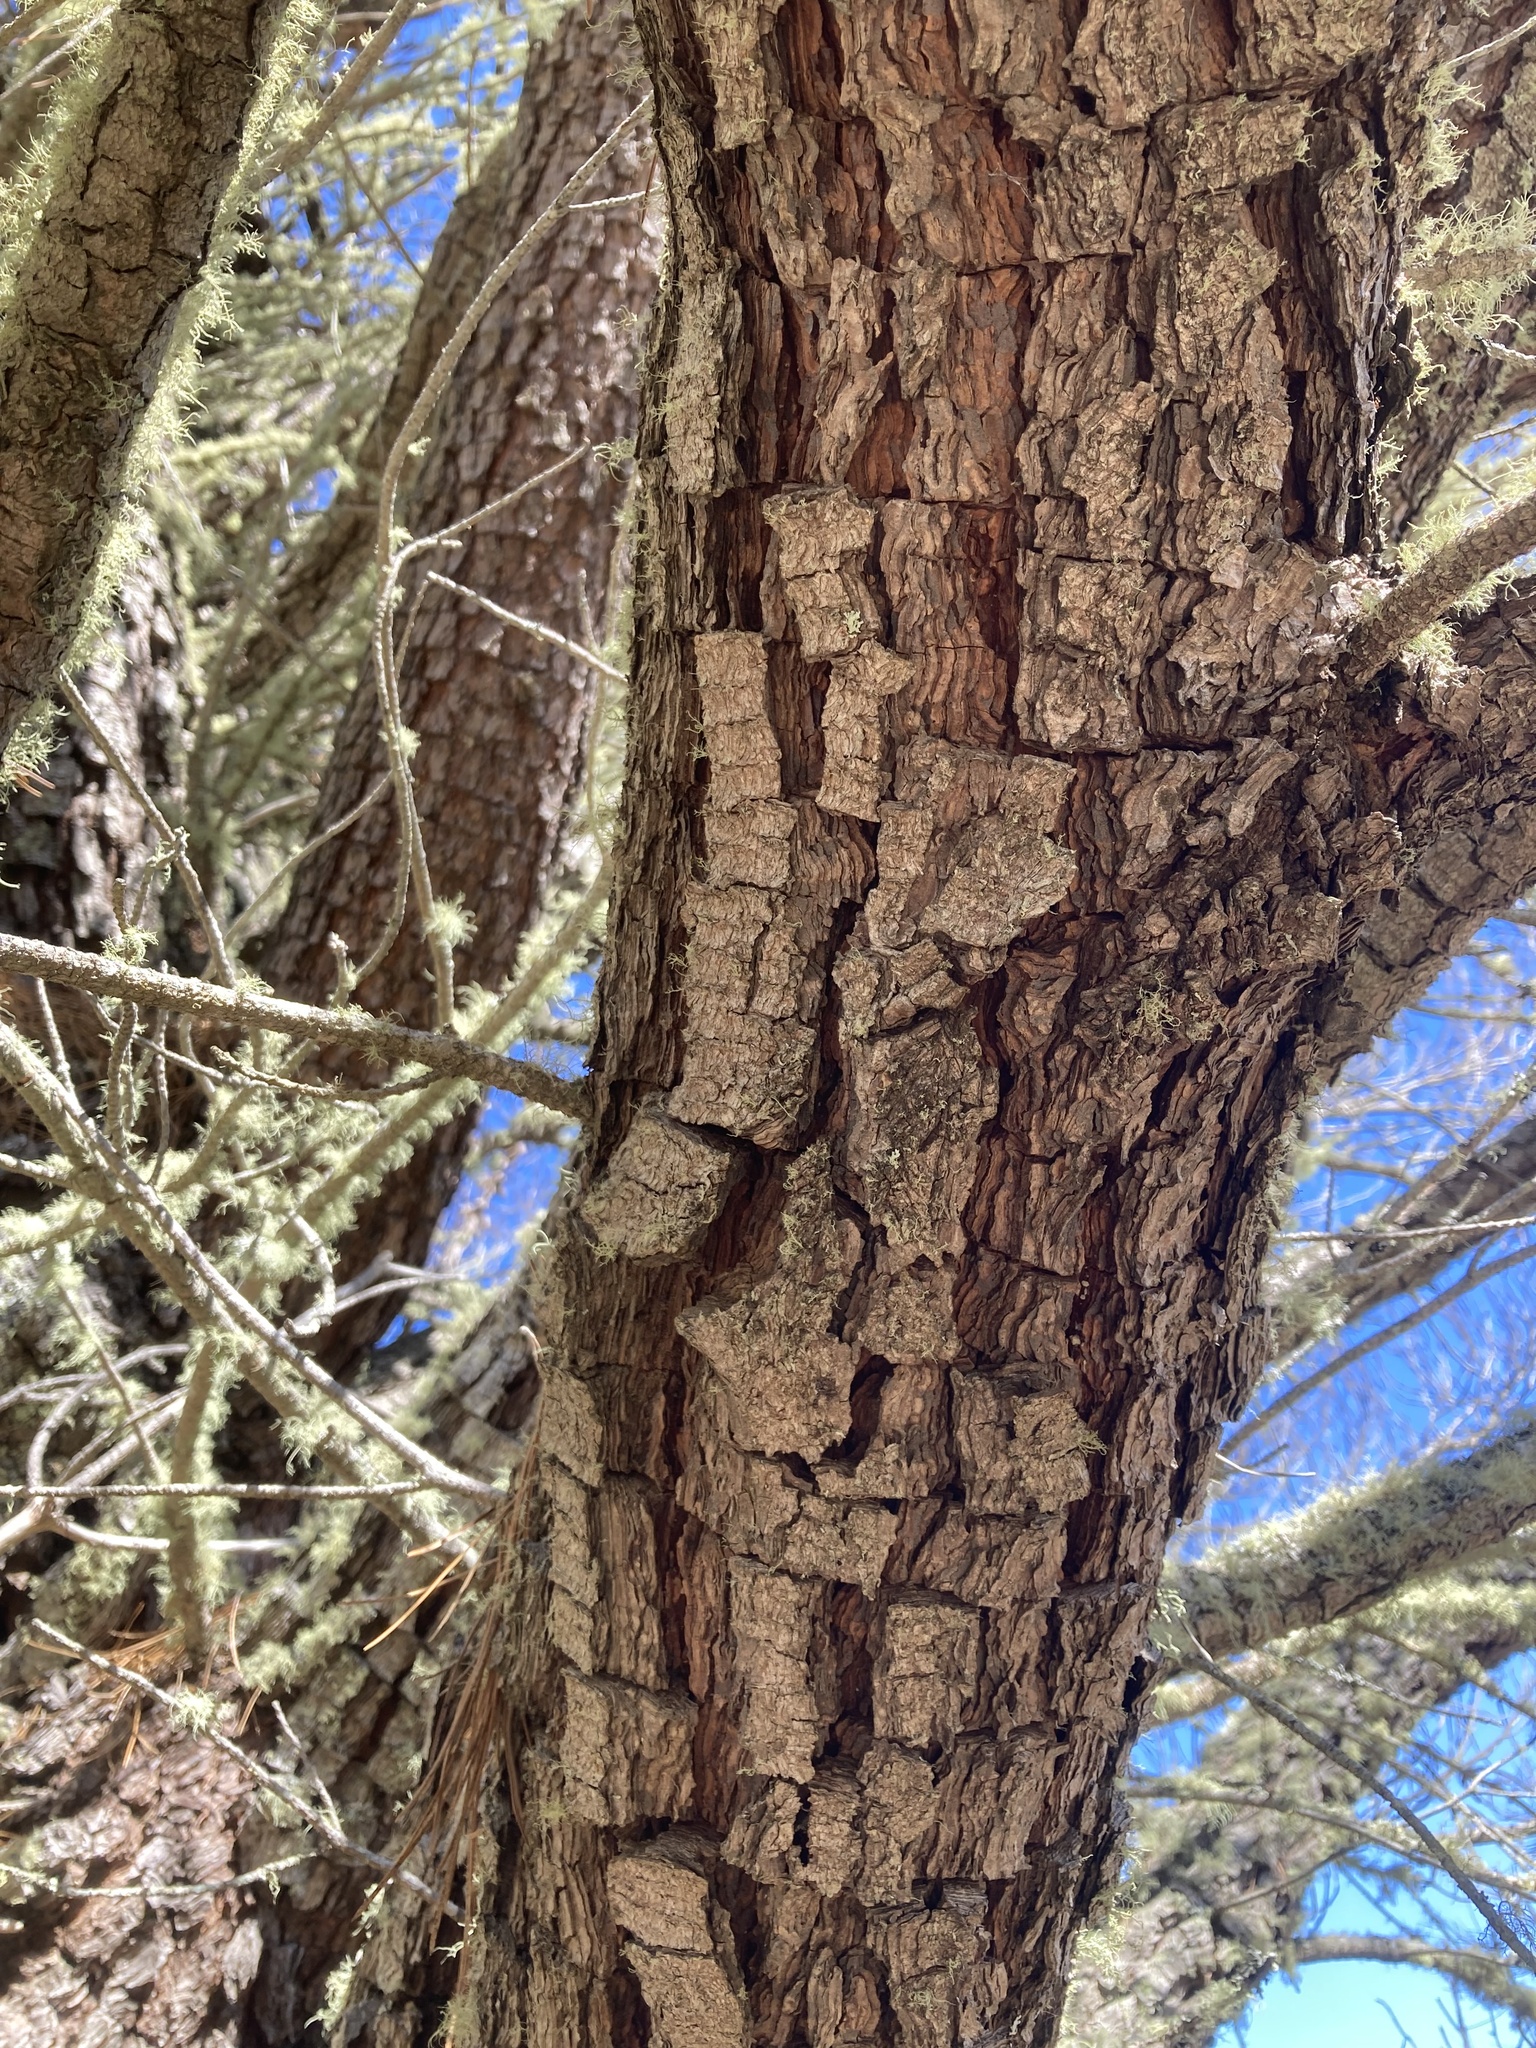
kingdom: Plantae
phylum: Tracheophyta
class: Pinopsida
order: Pinales
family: Pinaceae
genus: Pinus
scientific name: Pinus muricata
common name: Bishop pine
